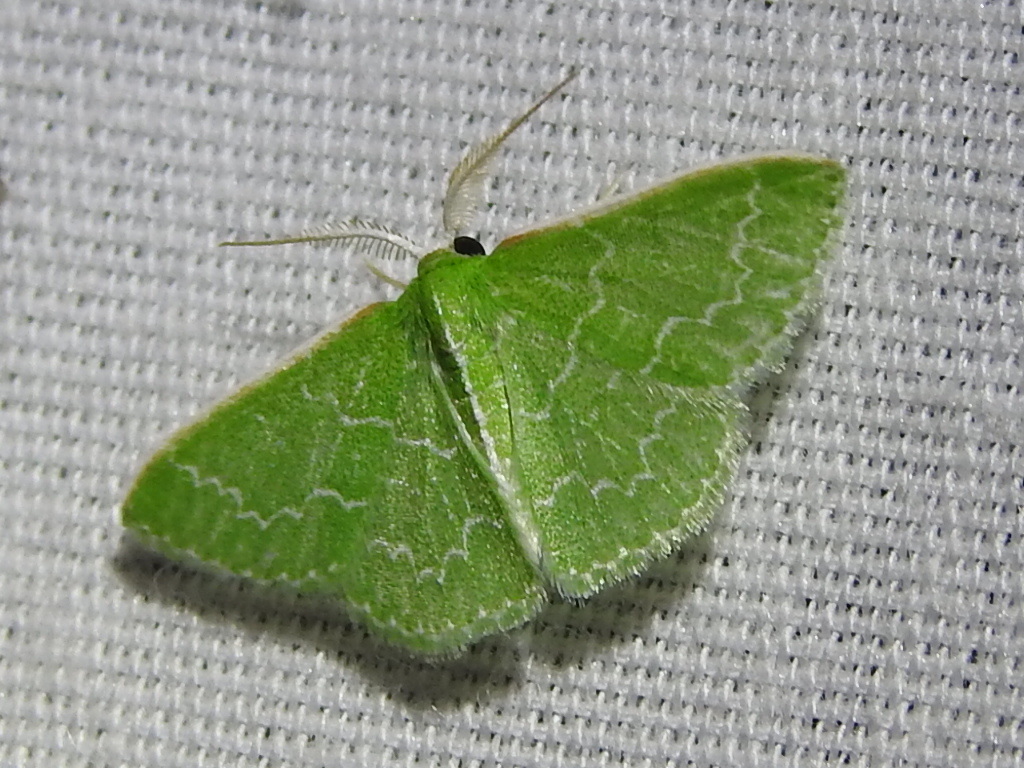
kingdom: Animalia
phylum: Arthropoda
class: Insecta
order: Lepidoptera
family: Geometridae
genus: Synchlora
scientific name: Synchlora frondaria
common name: Southern emerald
